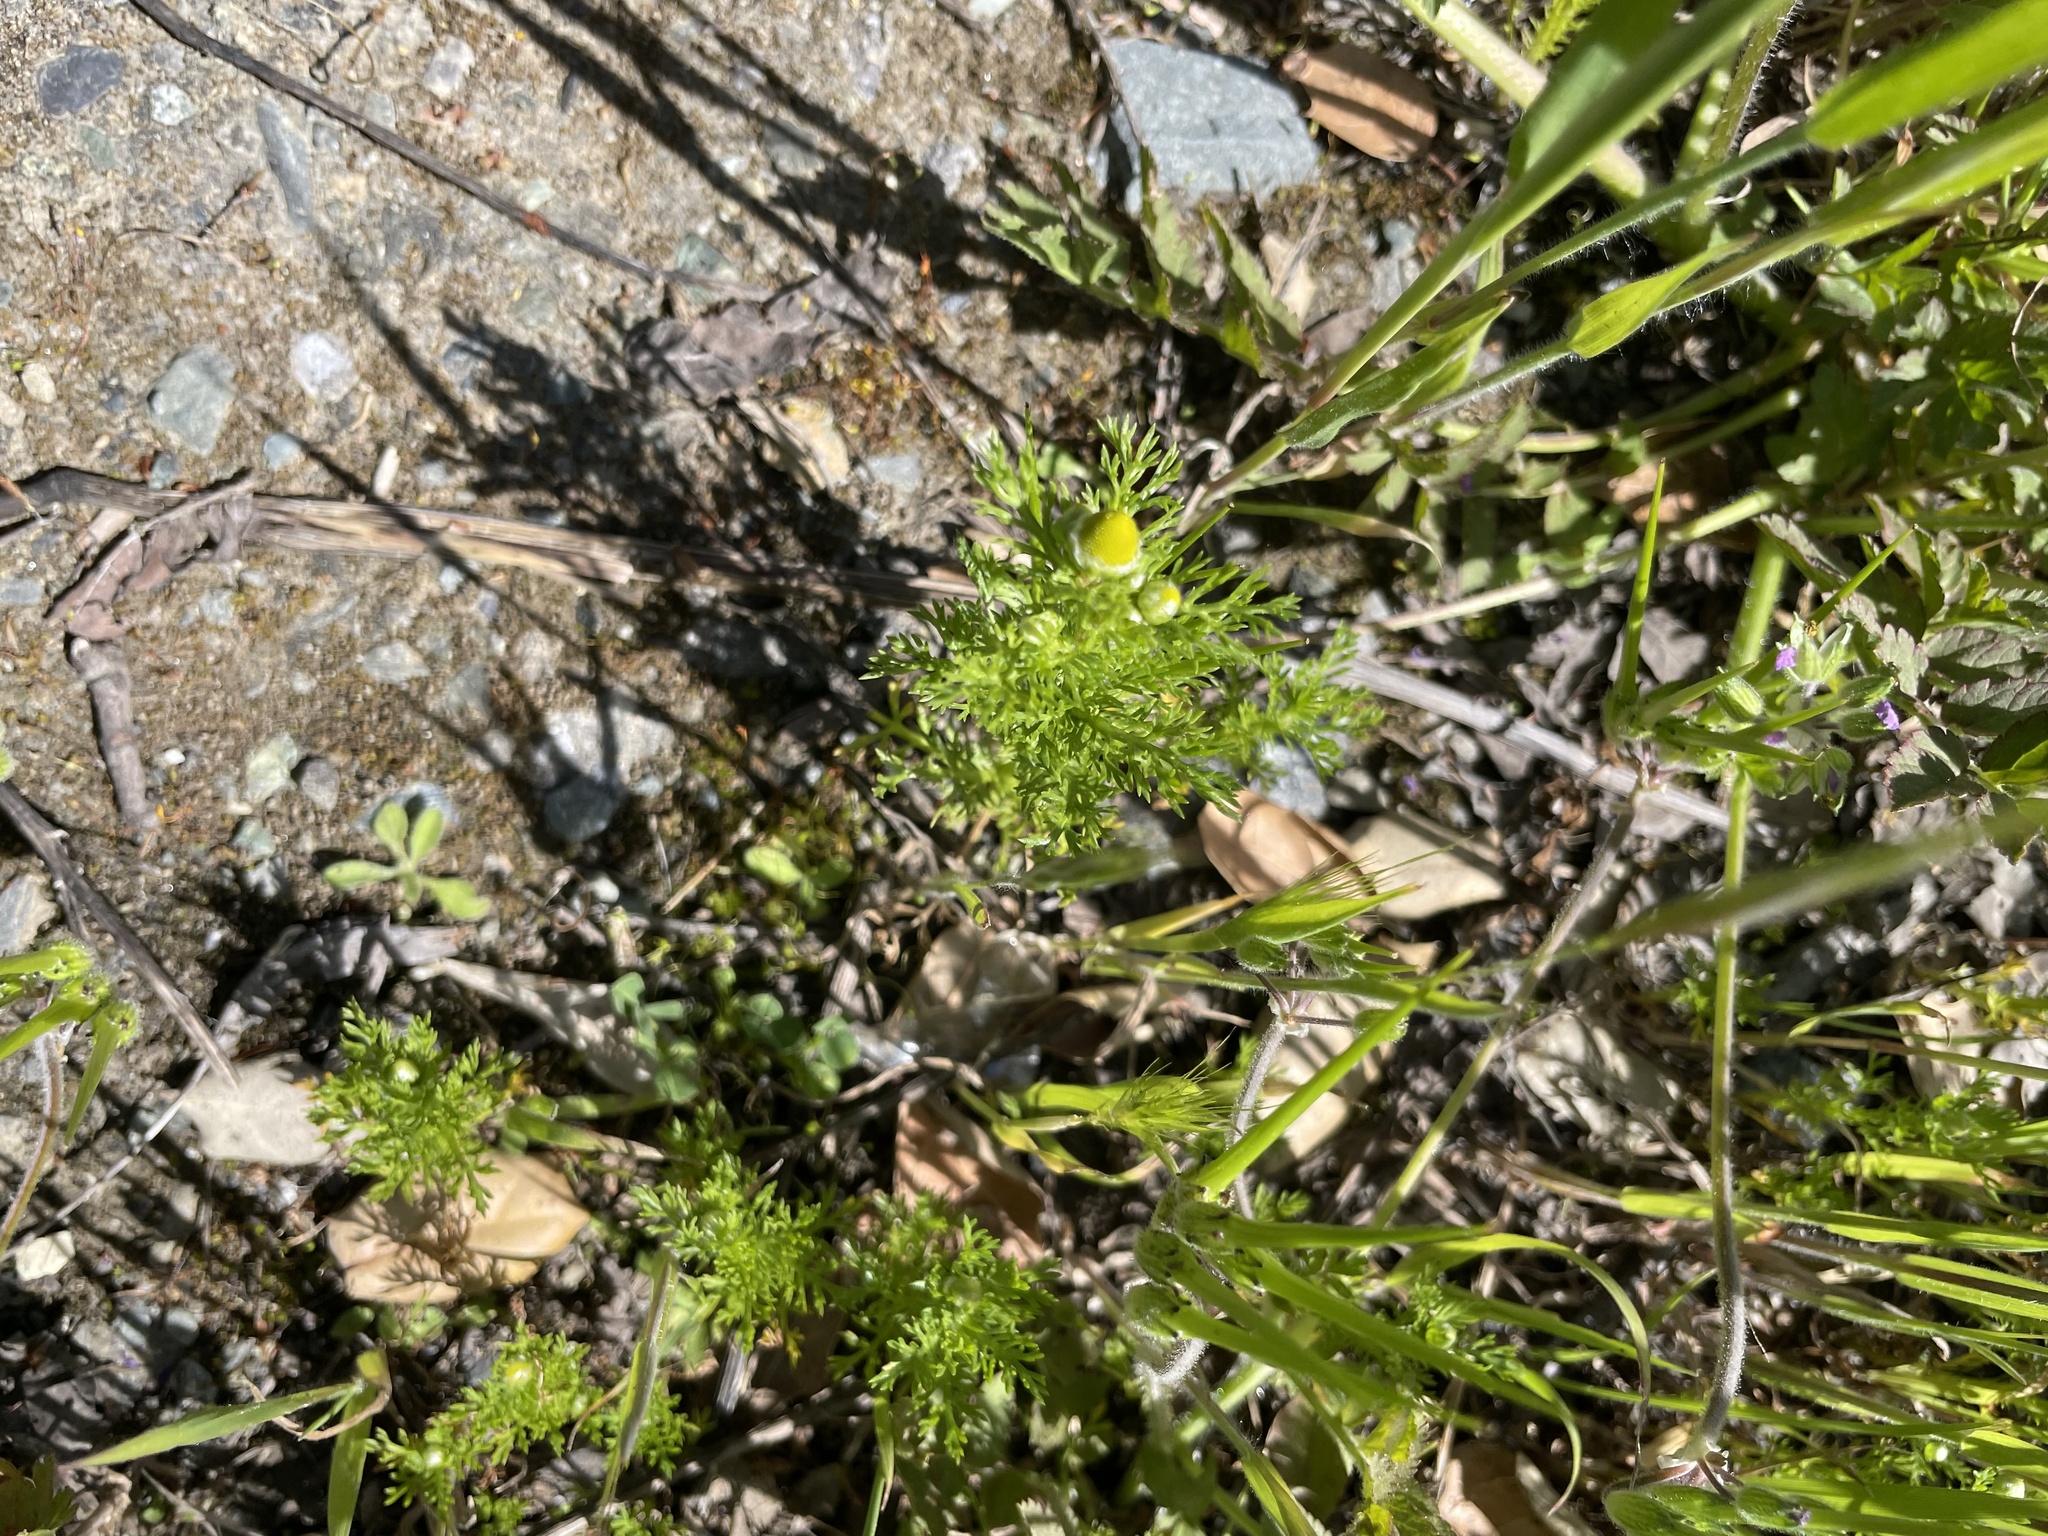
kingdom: Plantae
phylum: Tracheophyta
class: Magnoliopsida
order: Asterales
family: Asteraceae
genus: Matricaria
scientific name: Matricaria discoidea
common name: Disc mayweed
